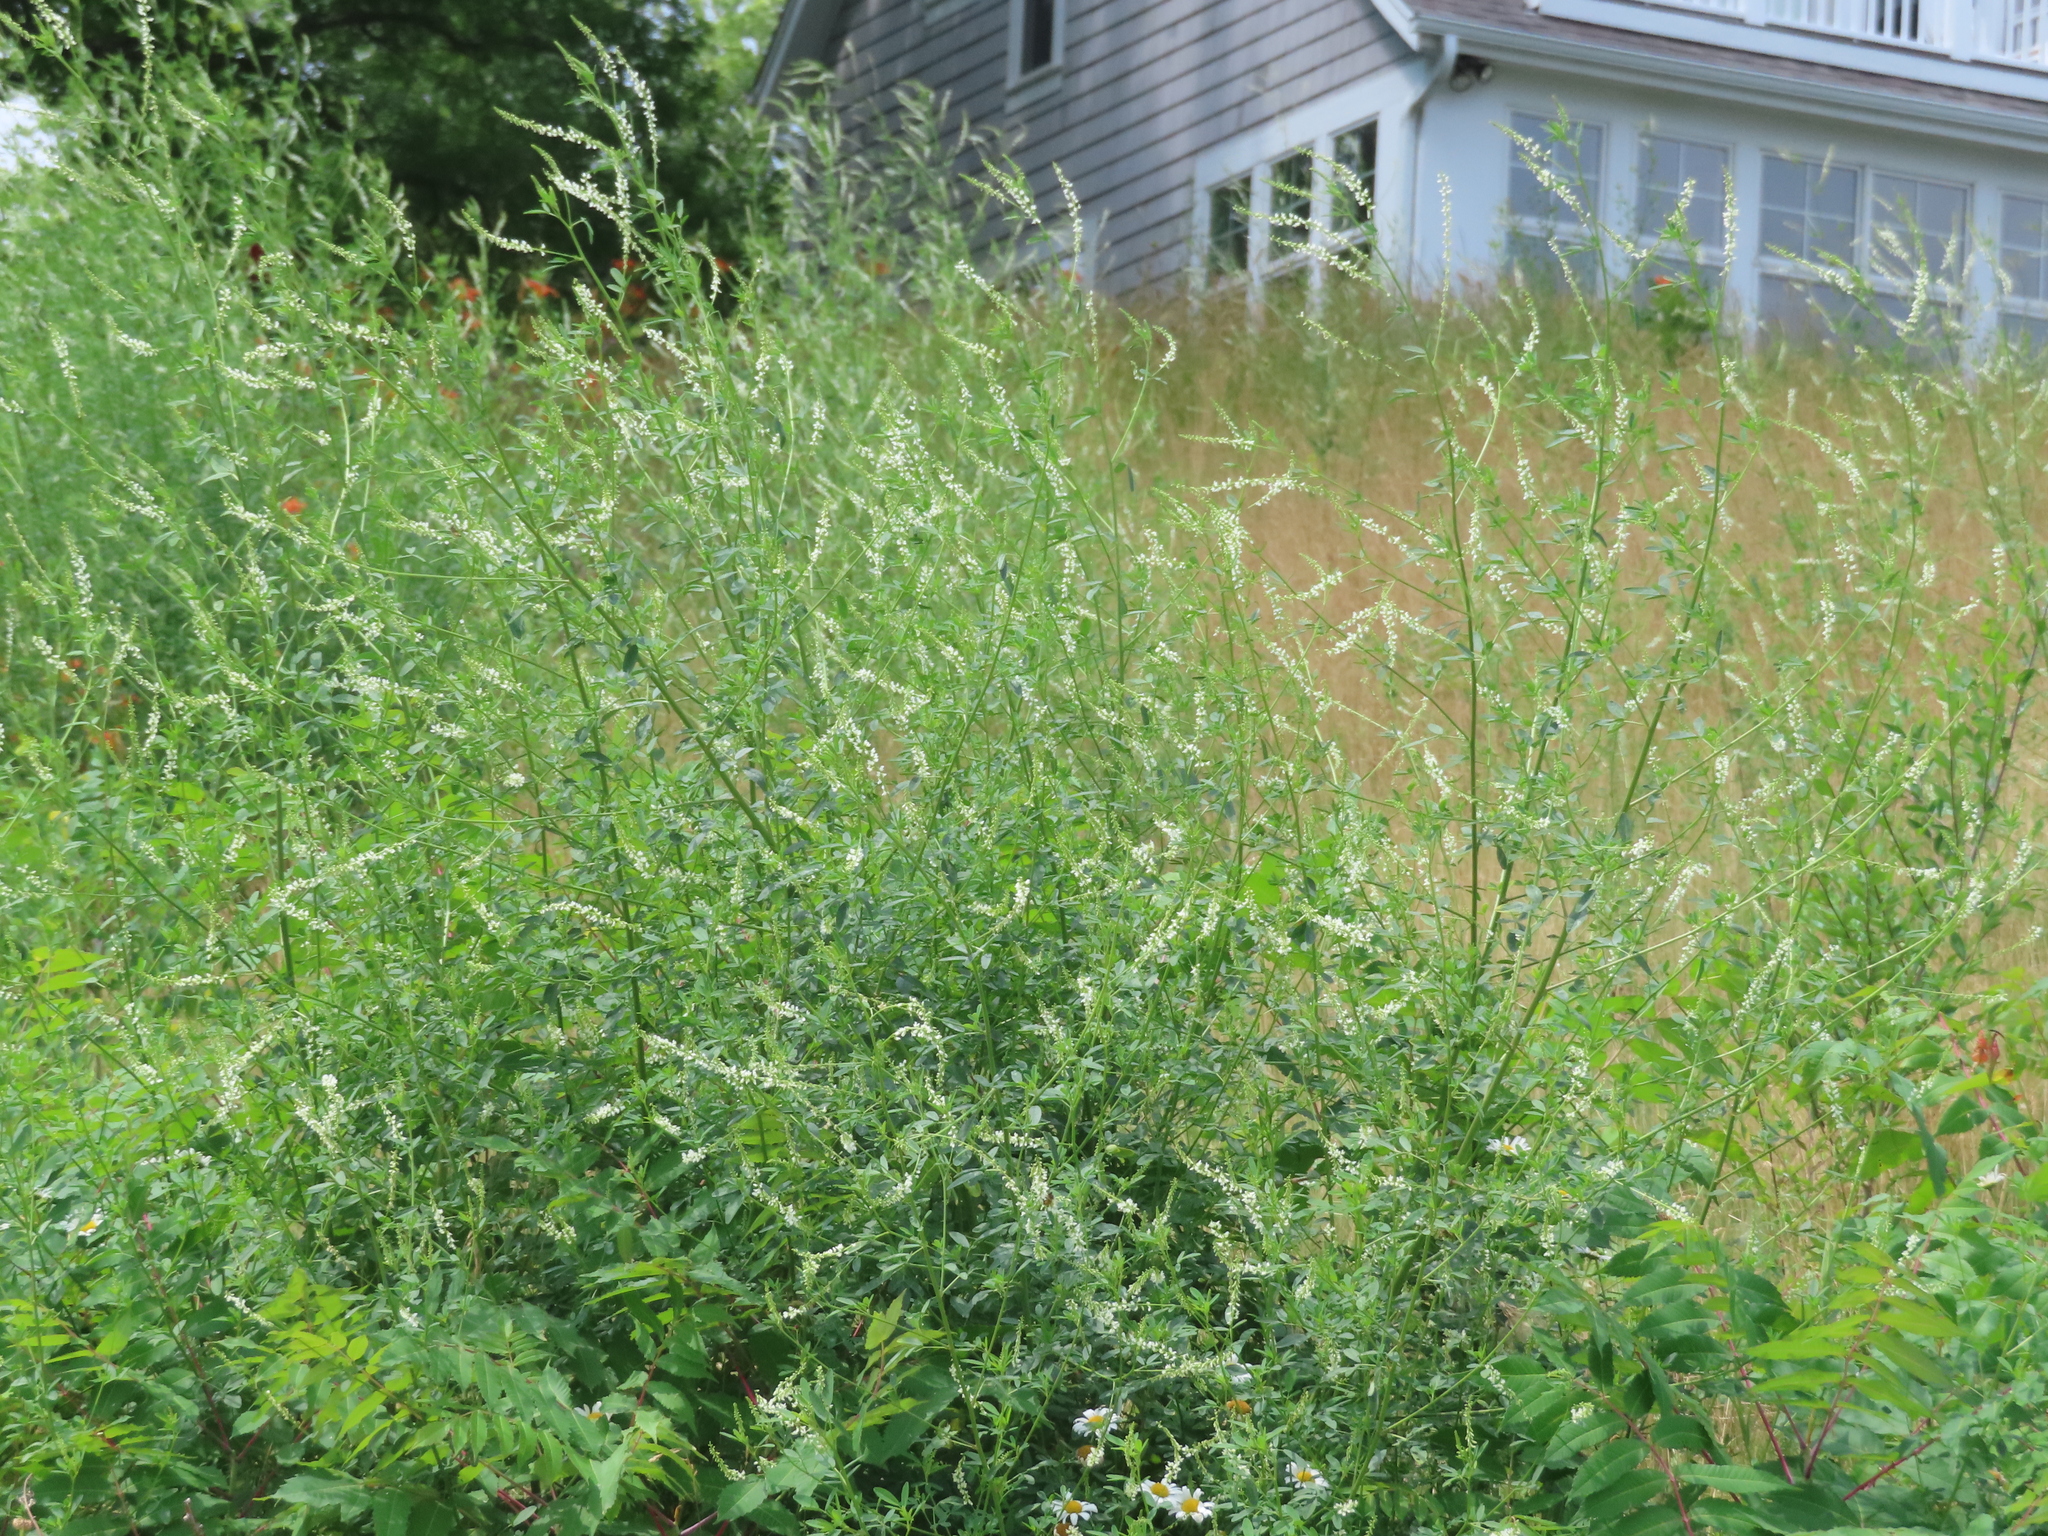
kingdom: Plantae
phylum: Tracheophyta
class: Magnoliopsida
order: Fabales
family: Fabaceae
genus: Melilotus
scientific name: Melilotus albus
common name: White melilot
